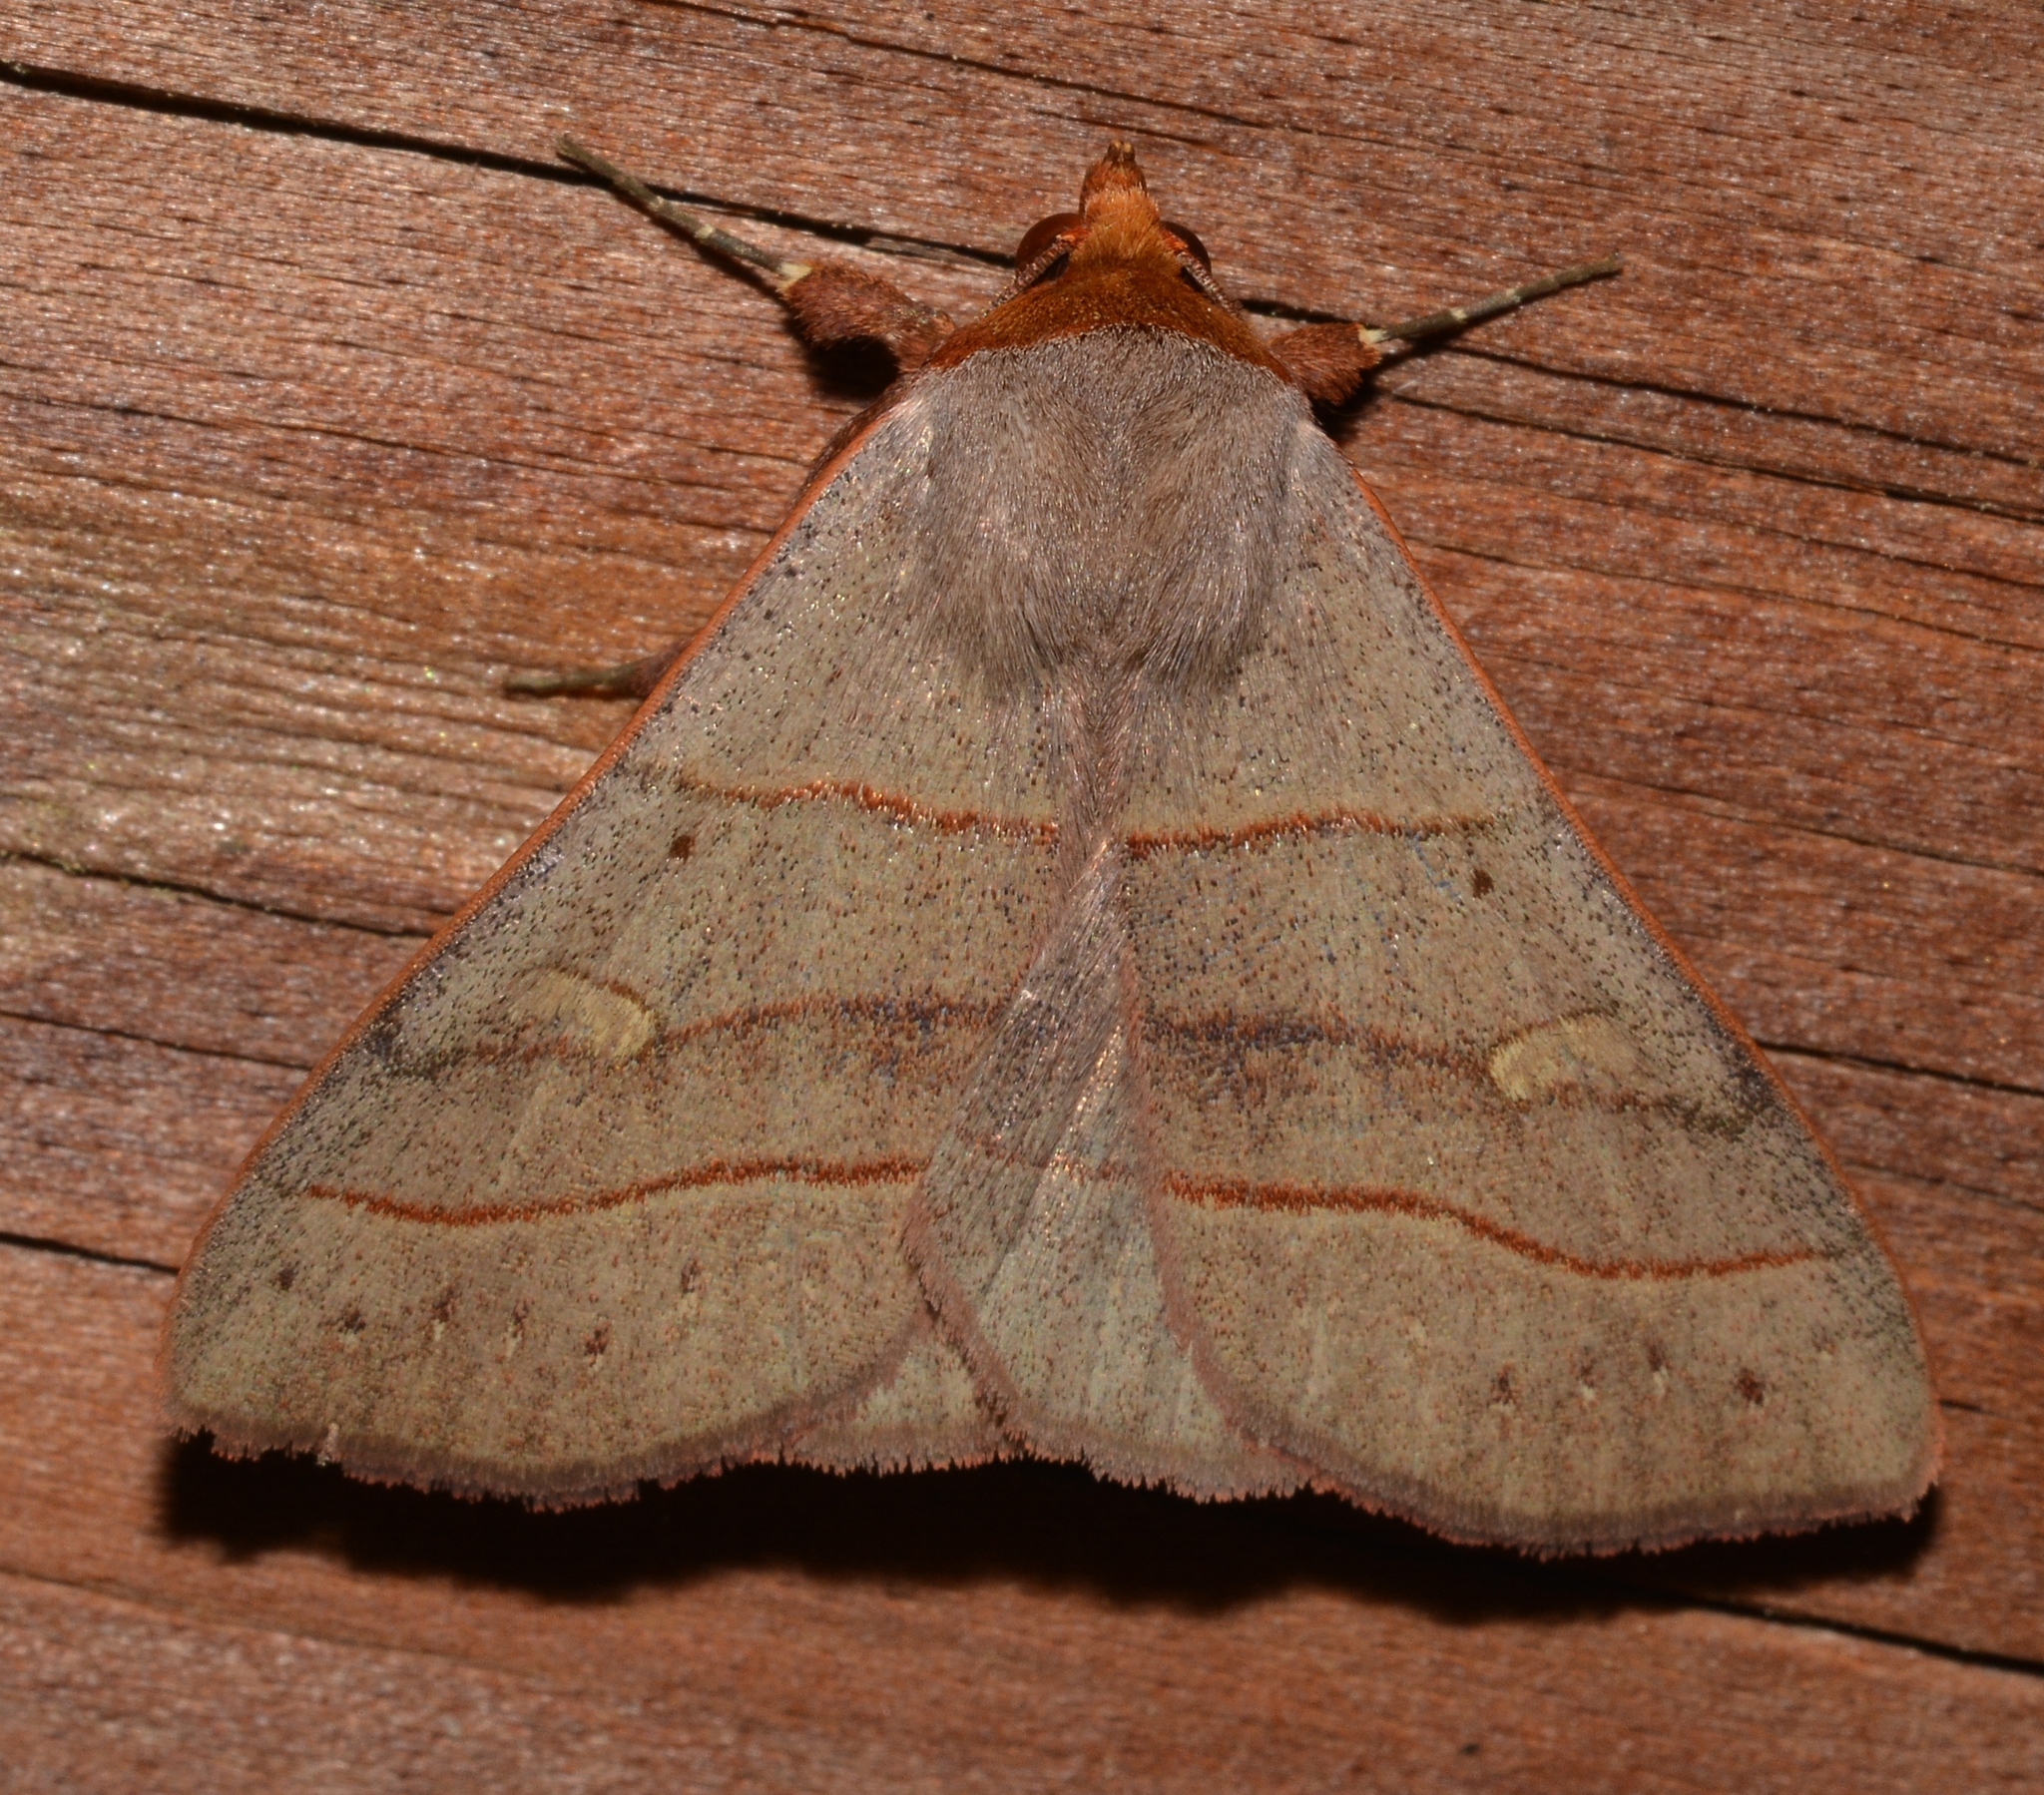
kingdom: Animalia
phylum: Arthropoda
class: Insecta
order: Lepidoptera
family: Erebidae
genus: Panopoda
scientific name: Panopoda rufimargo
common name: Red-lined panopoda moth
